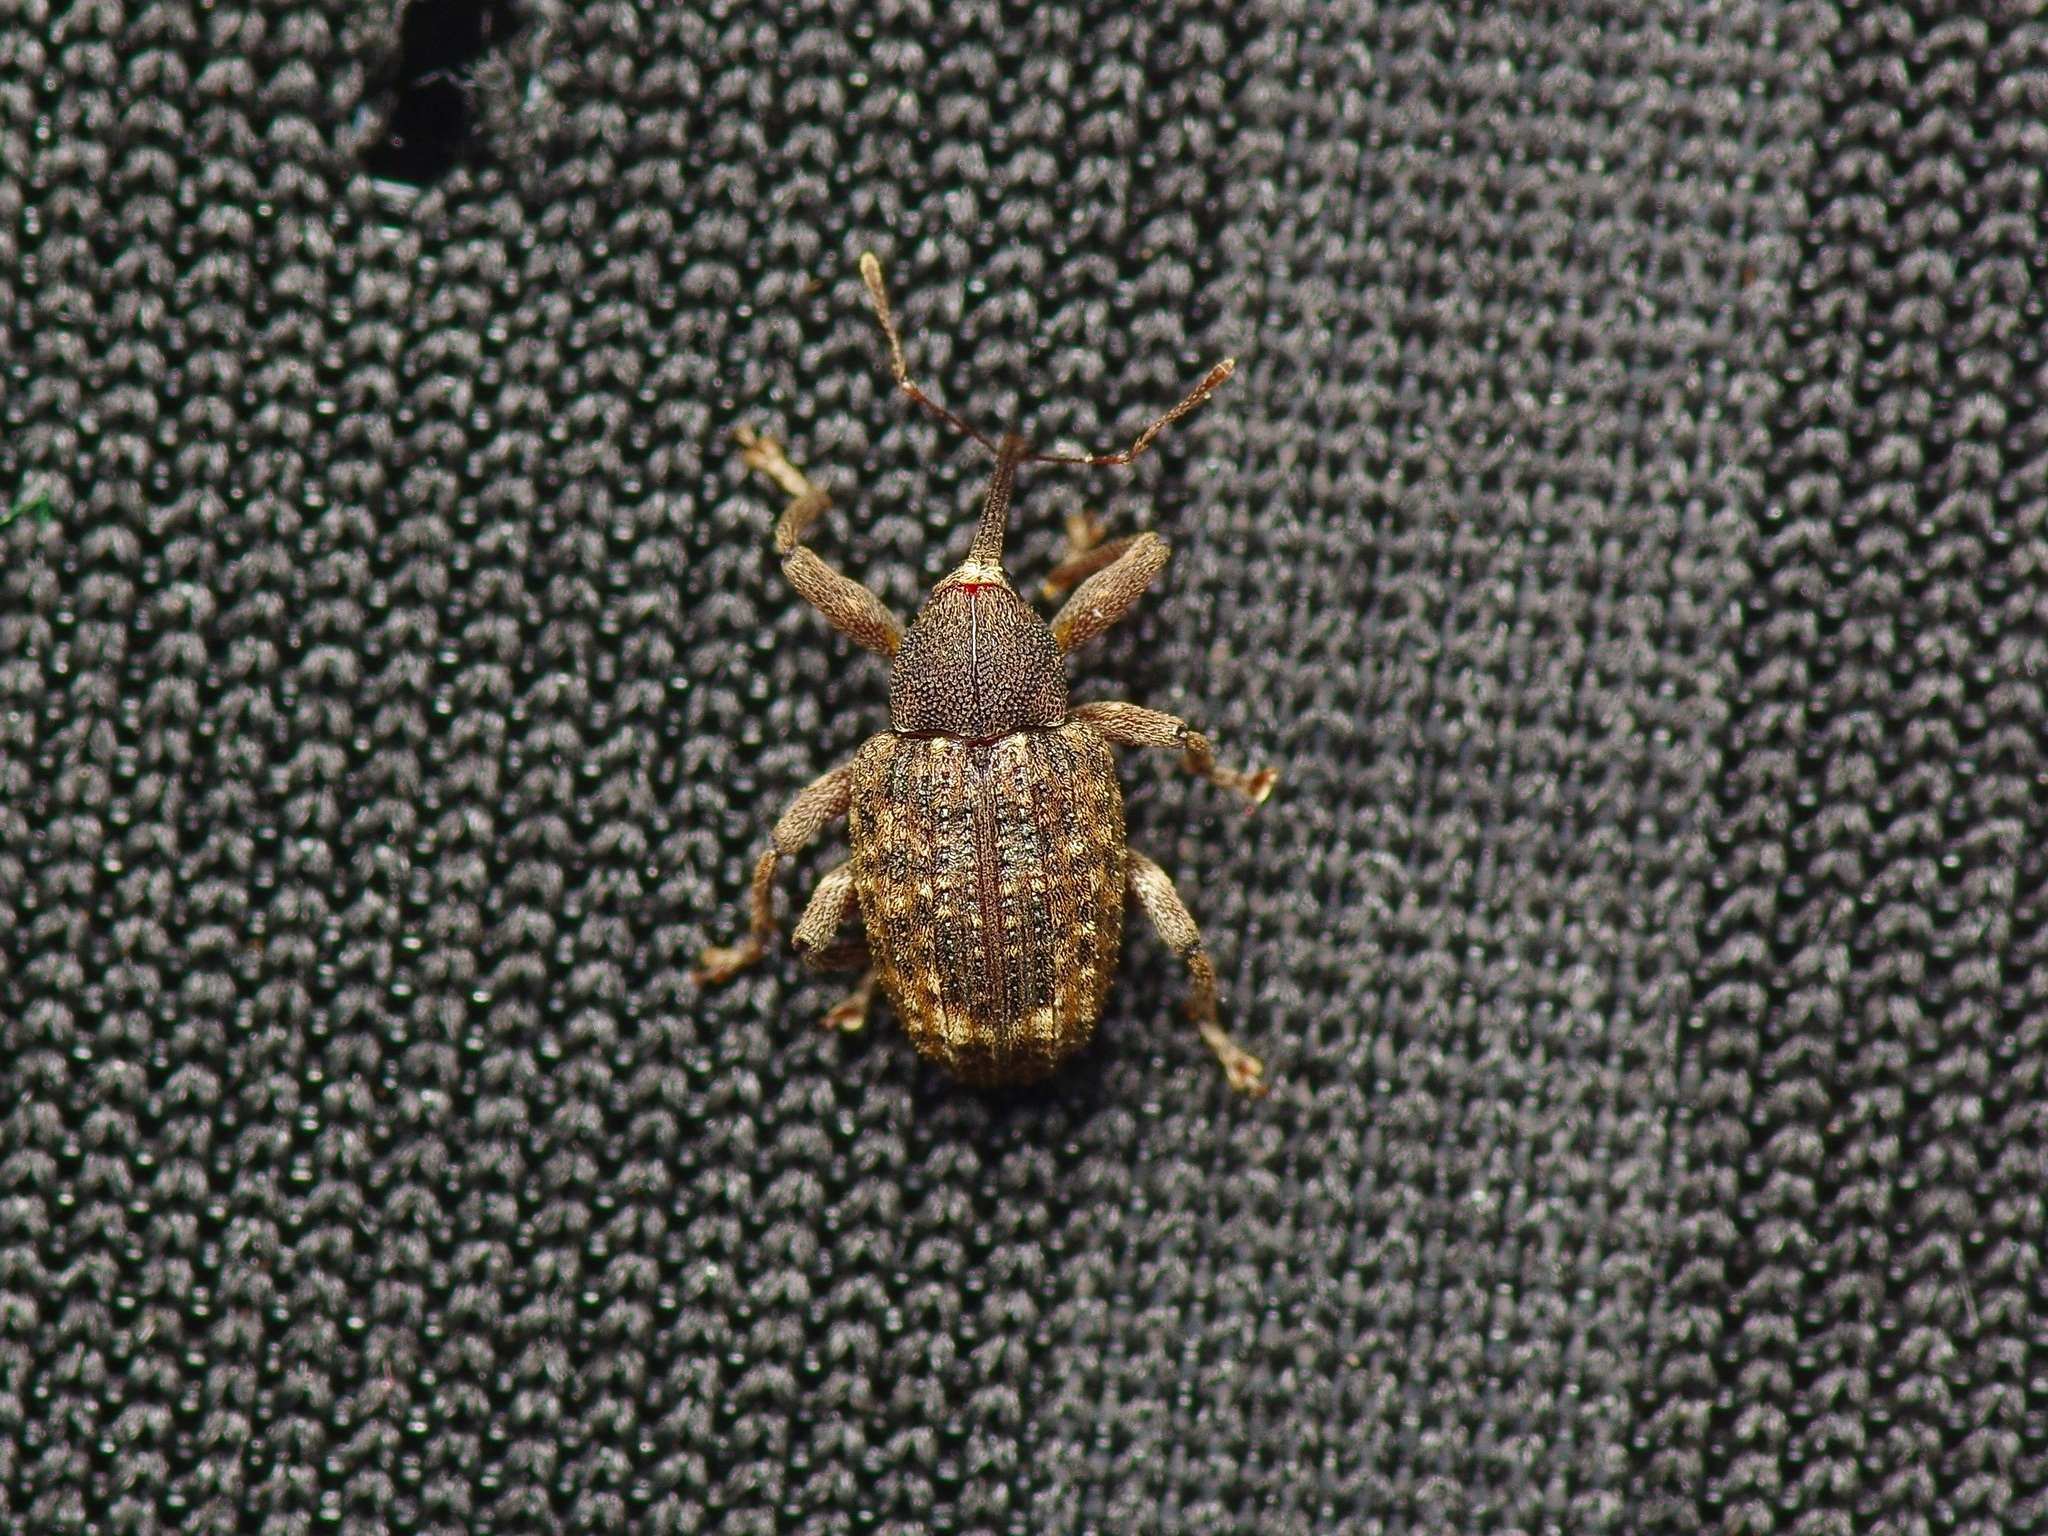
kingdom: Animalia
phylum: Arthropoda
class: Insecta
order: Coleoptera
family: Curculionidae
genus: Conotrachelus
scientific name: Conotrachelus posticatus
